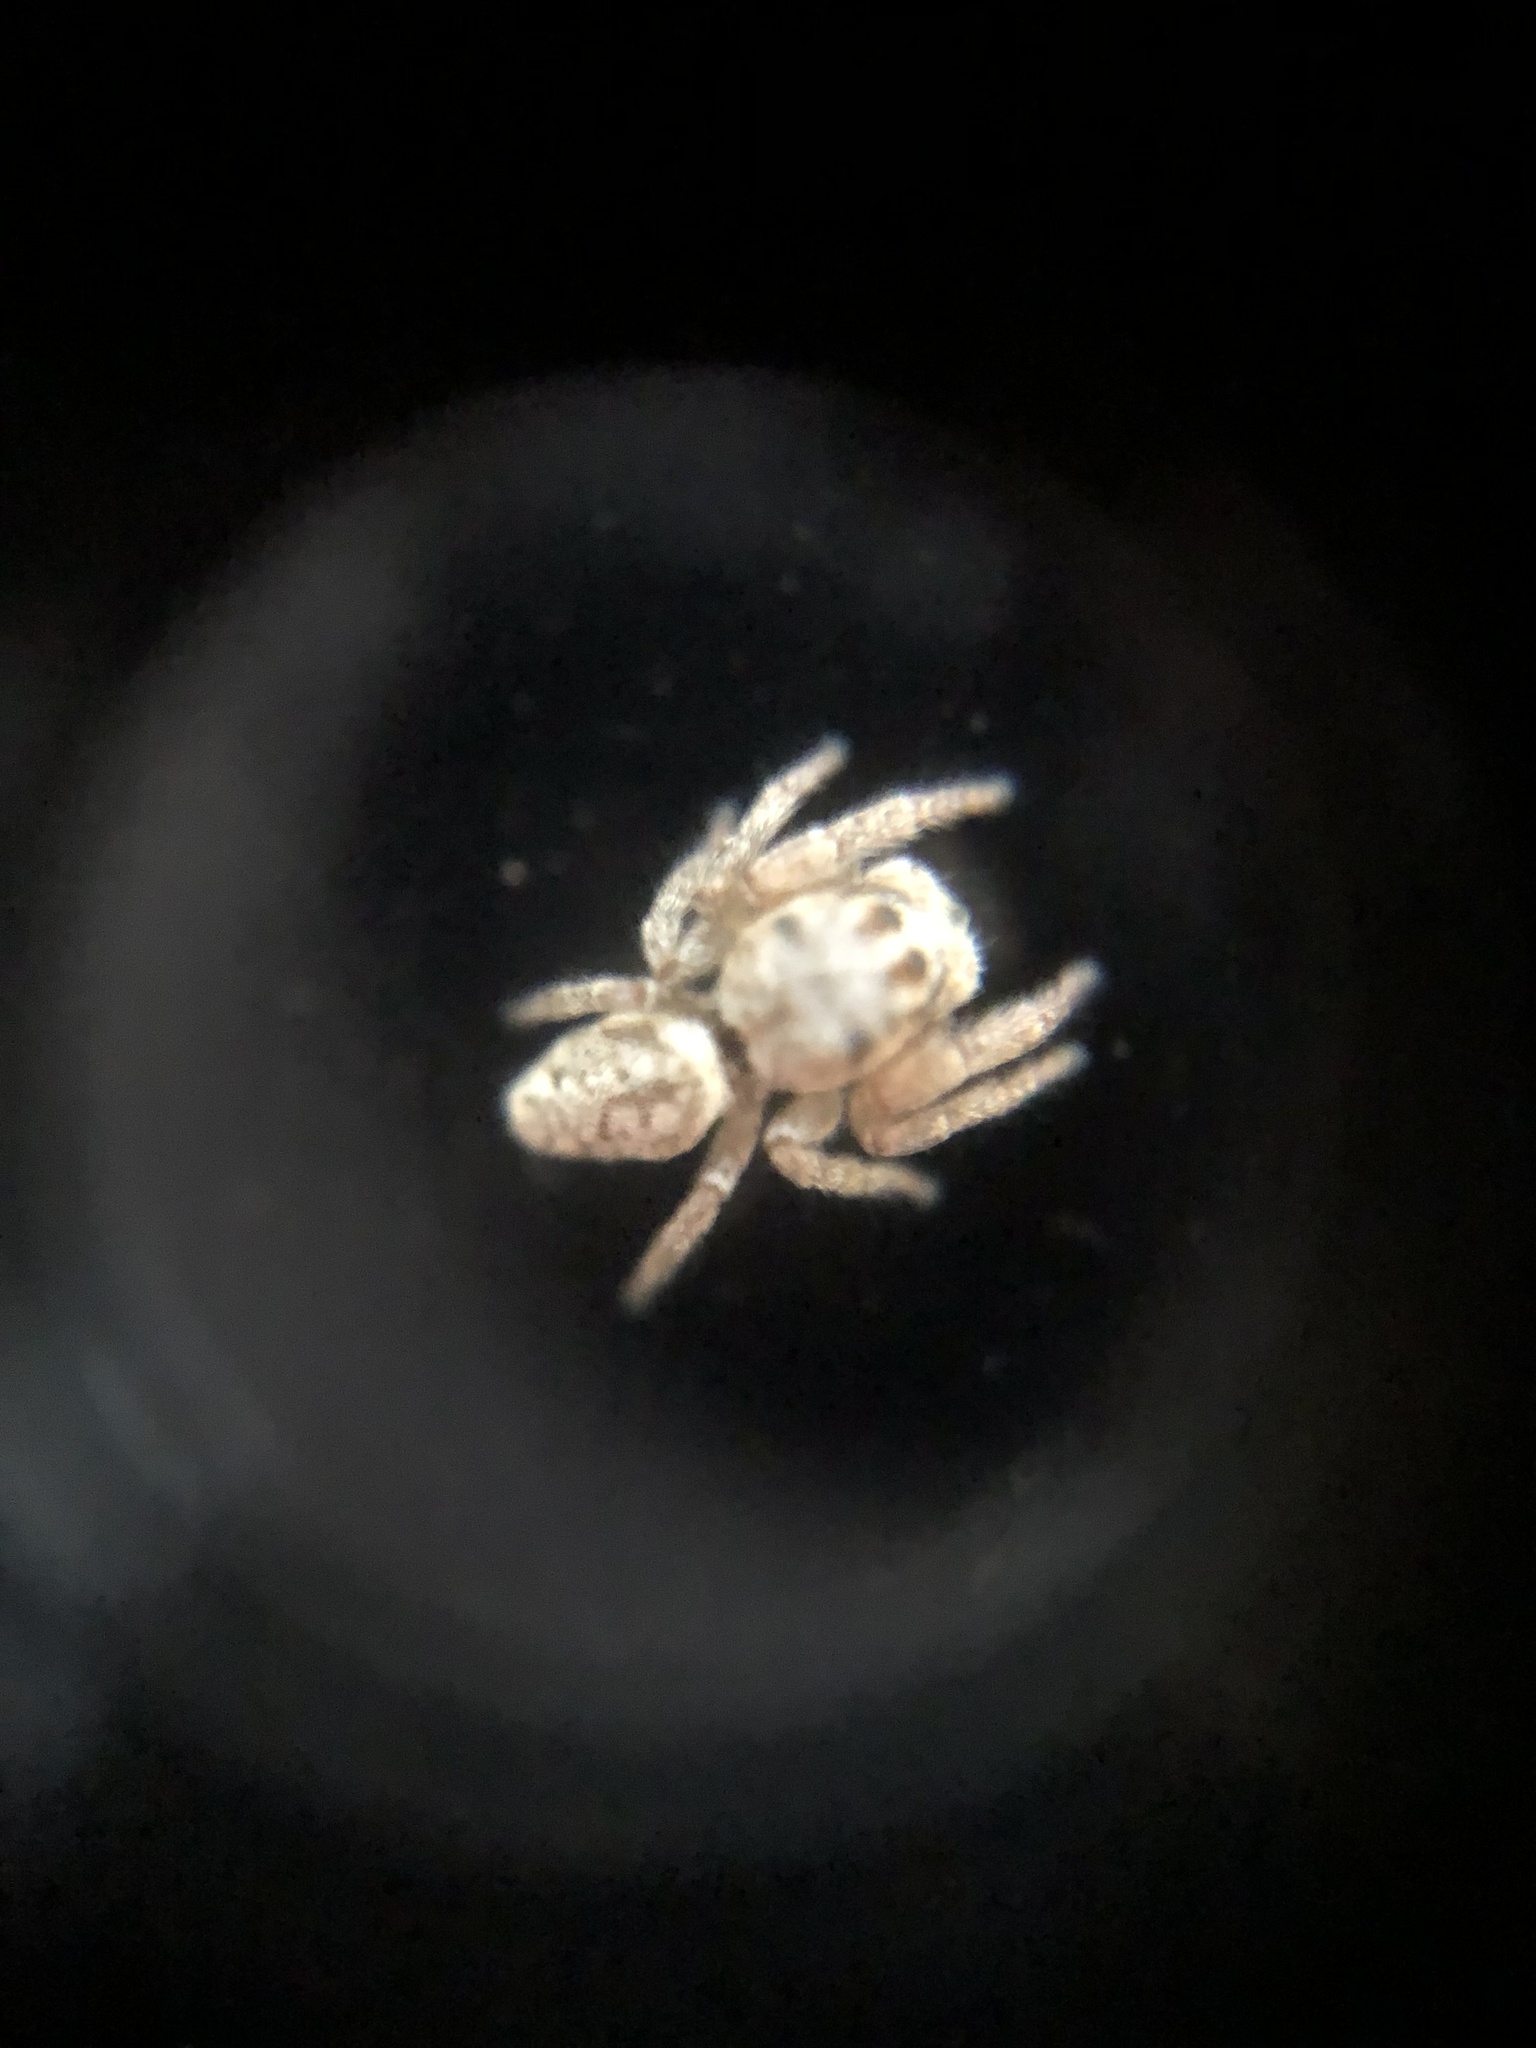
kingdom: Animalia
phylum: Arthropoda
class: Arachnida
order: Araneae
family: Salticidae
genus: Opisthoncus
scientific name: Opisthoncus polyphemus
